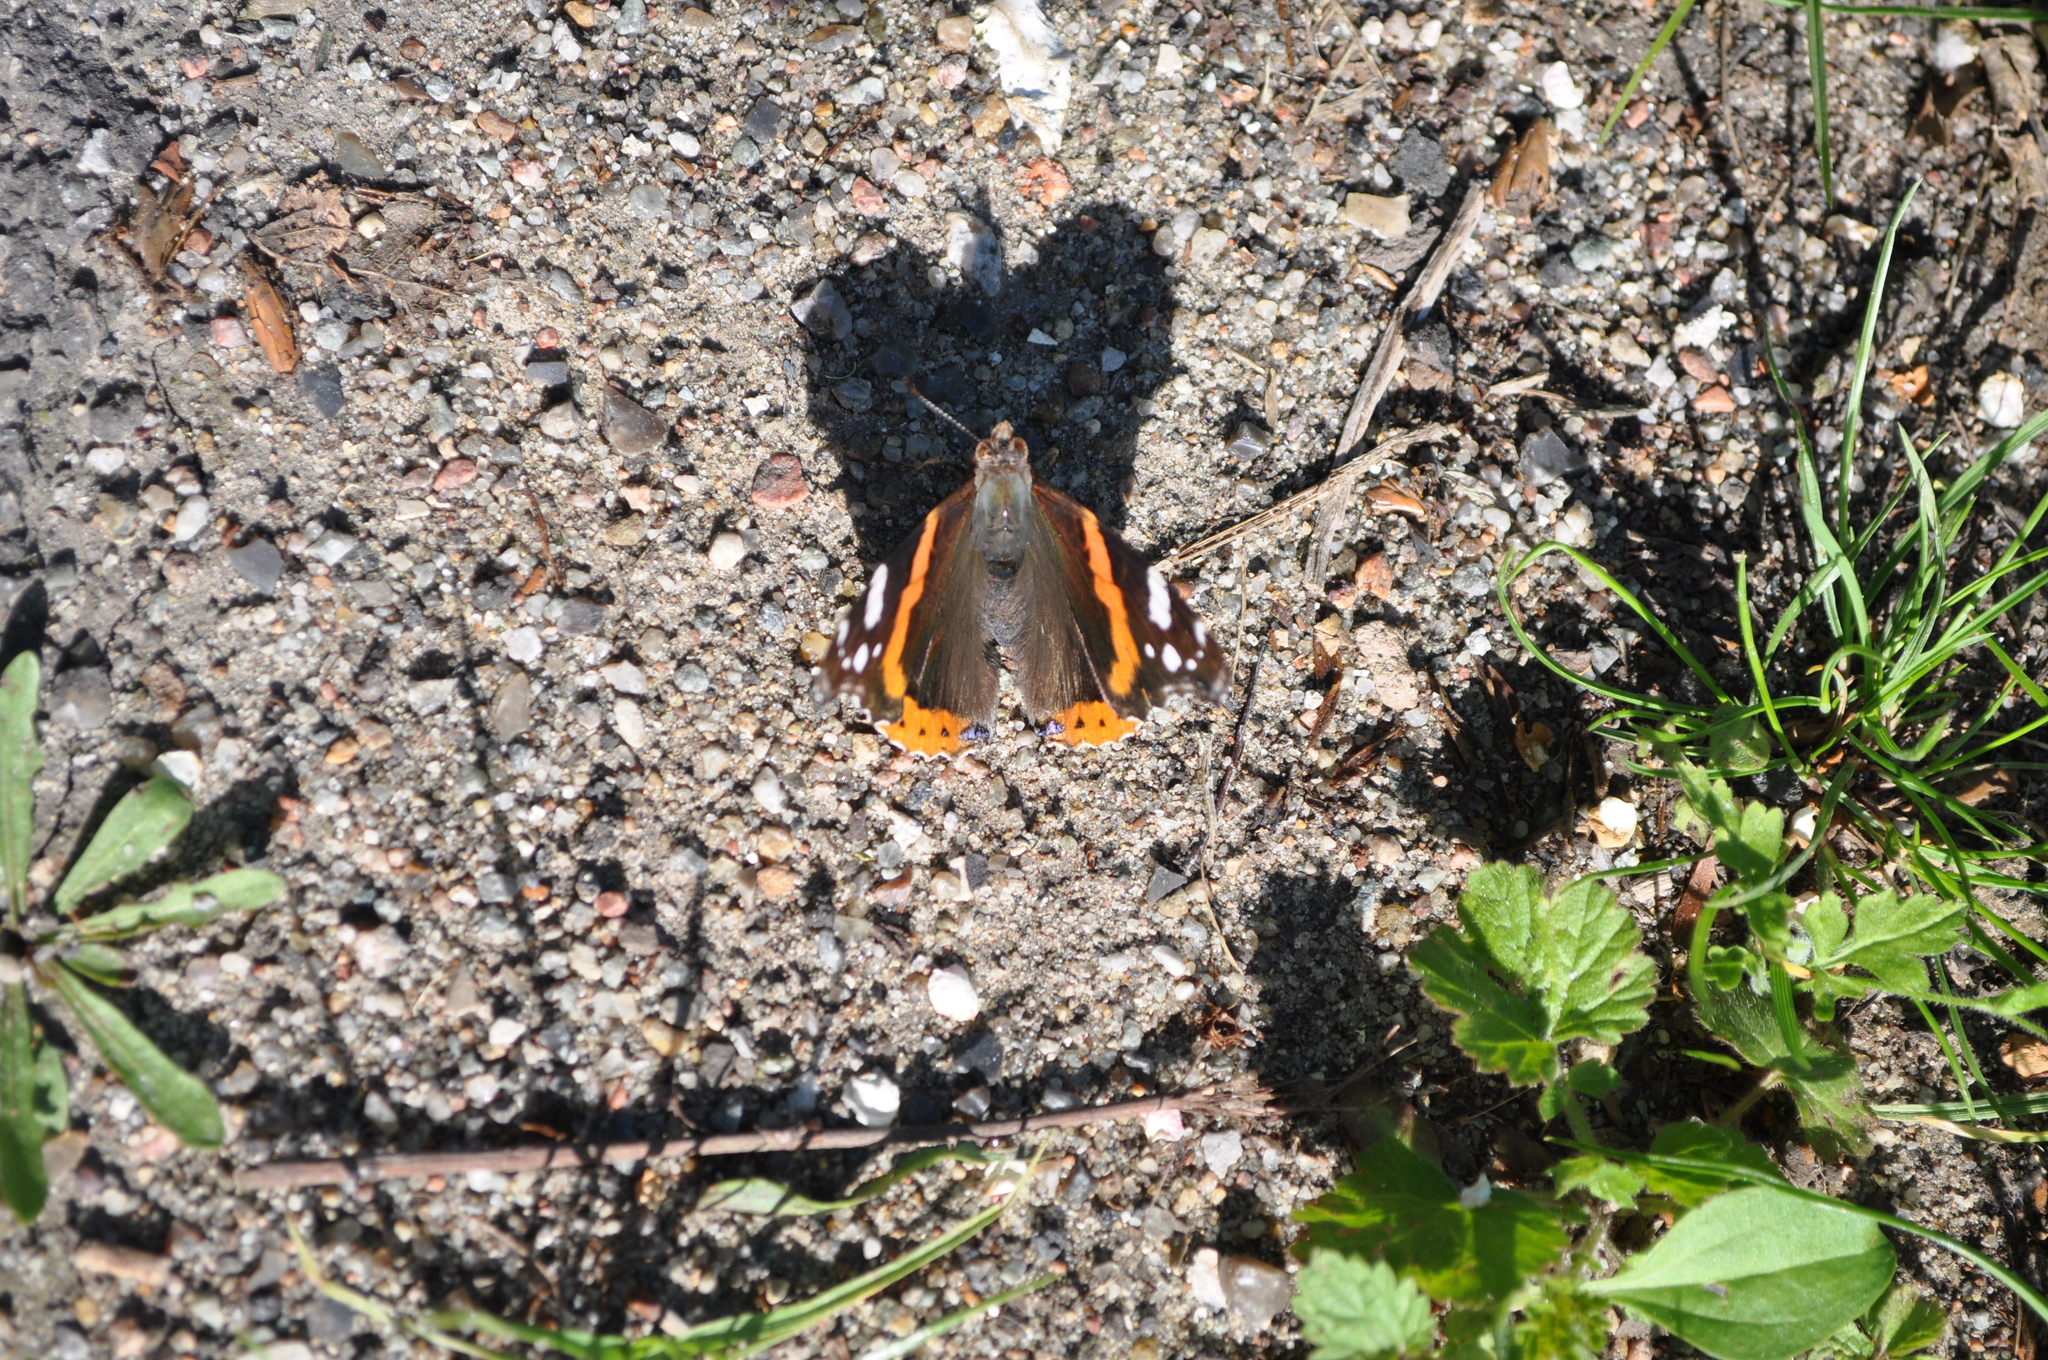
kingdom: Animalia
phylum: Arthropoda
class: Insecta
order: Lepidoptera
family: Nymphalidae
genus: Vanessa
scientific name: Vanessa atalanta
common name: Red admiral
